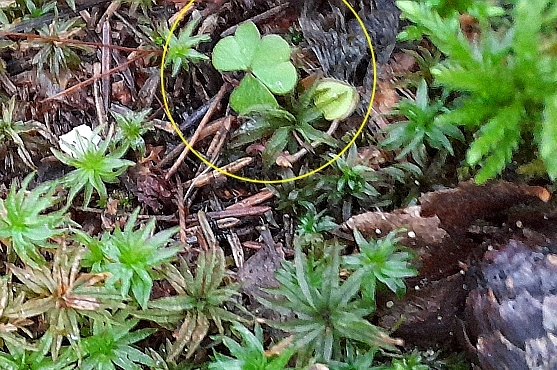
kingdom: Plantae
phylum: Tracheophyta
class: Magnoliopsida
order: Oxalidales
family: Oxalidaceae
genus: Oxalis
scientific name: Oxalis acetosella
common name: Wood-sorrel
